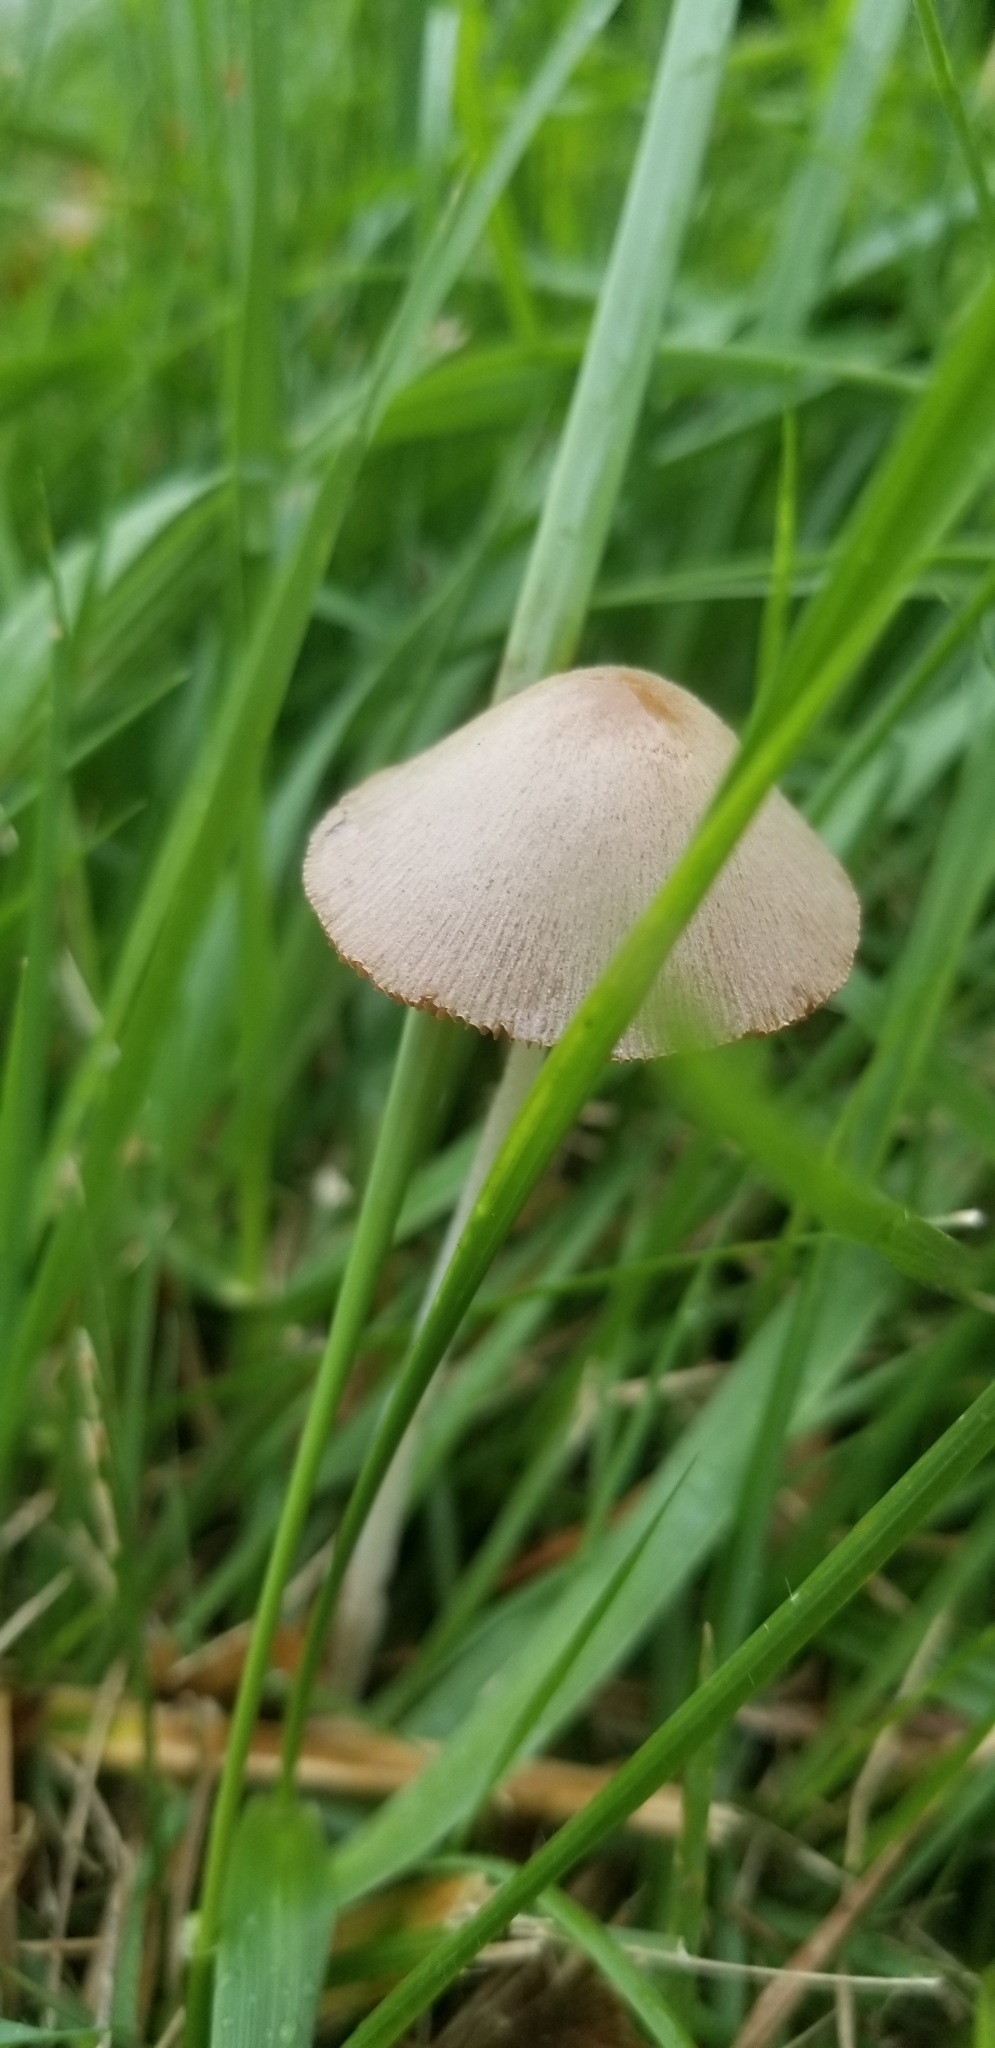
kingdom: Fungi
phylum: Basidiomycota
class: Agaricomycetes
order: Agaricales
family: Bolbitiaceae
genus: Conocybe
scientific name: Conocybe apala
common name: Milky conecap
